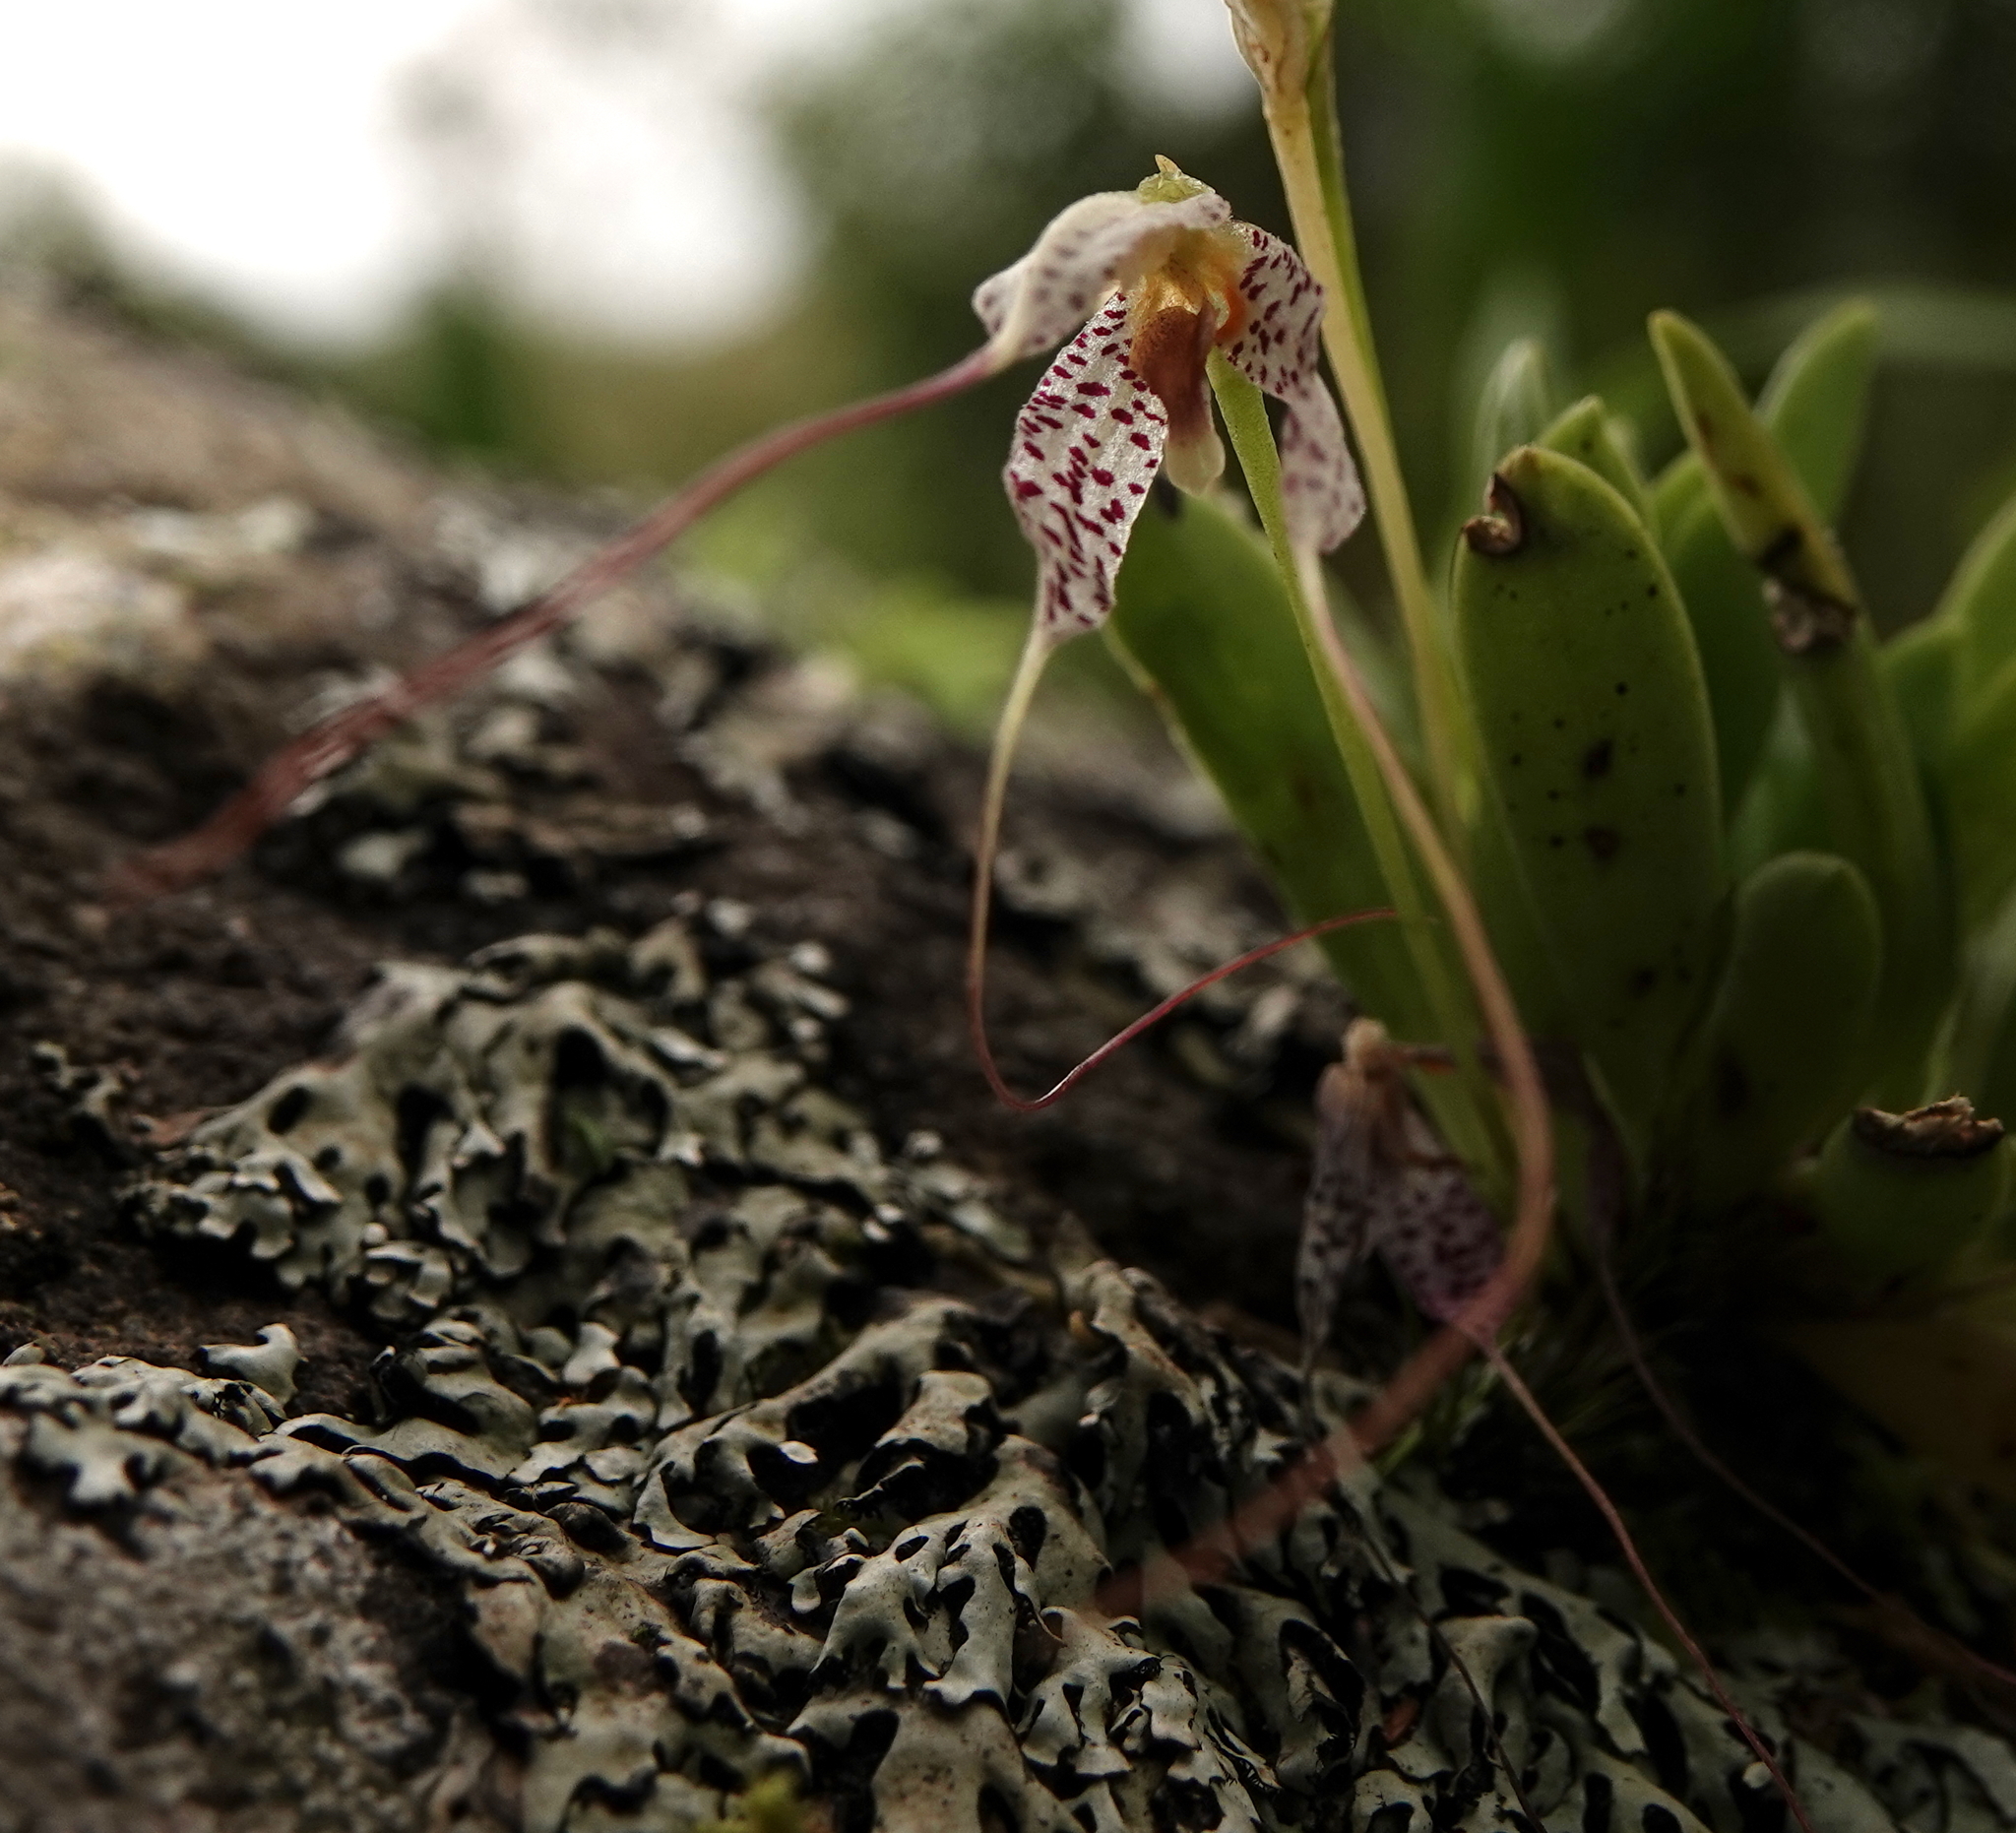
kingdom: Plantae
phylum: Tracheophyta
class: Liliopsida
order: Asparagales
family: Orchidaceae
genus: Masdevallia
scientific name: Masdevallia picturata
